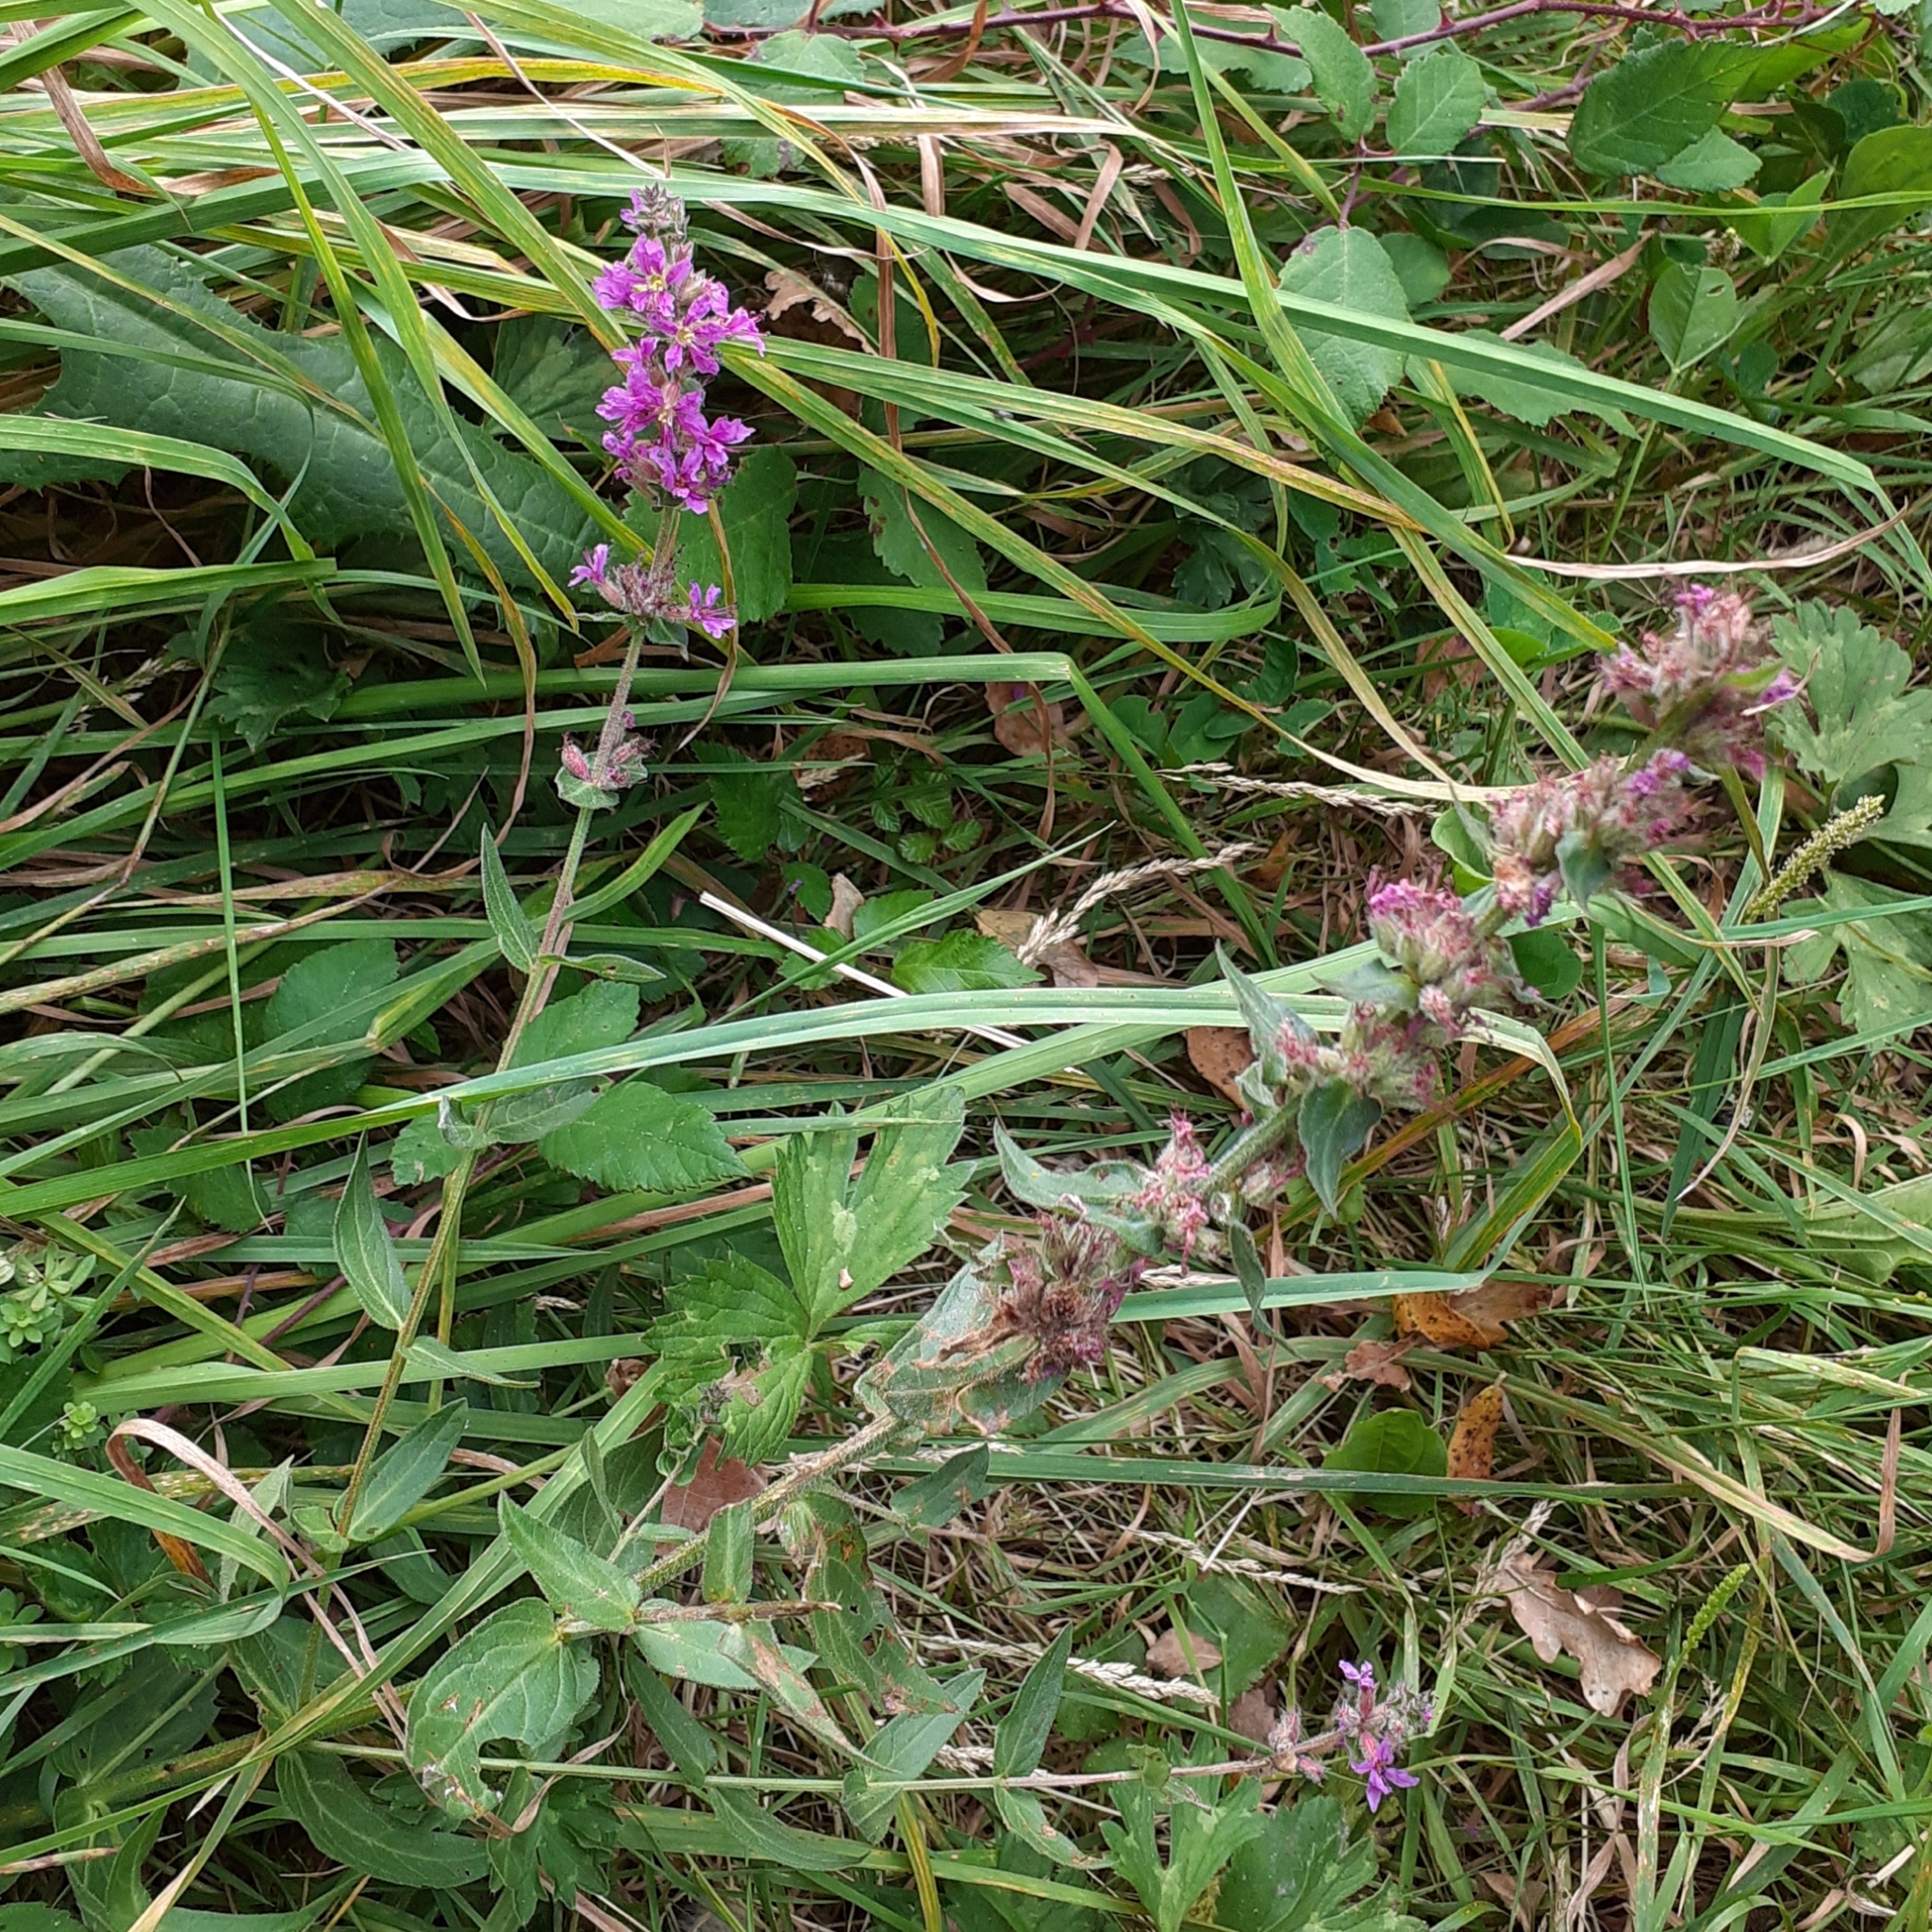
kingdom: Plantae
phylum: Tracheophyta
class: Magnoliopsida
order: Myrtales
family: Lythraceae
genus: Lythrum
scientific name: Lythrum salicaria
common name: Purple loosestrife
